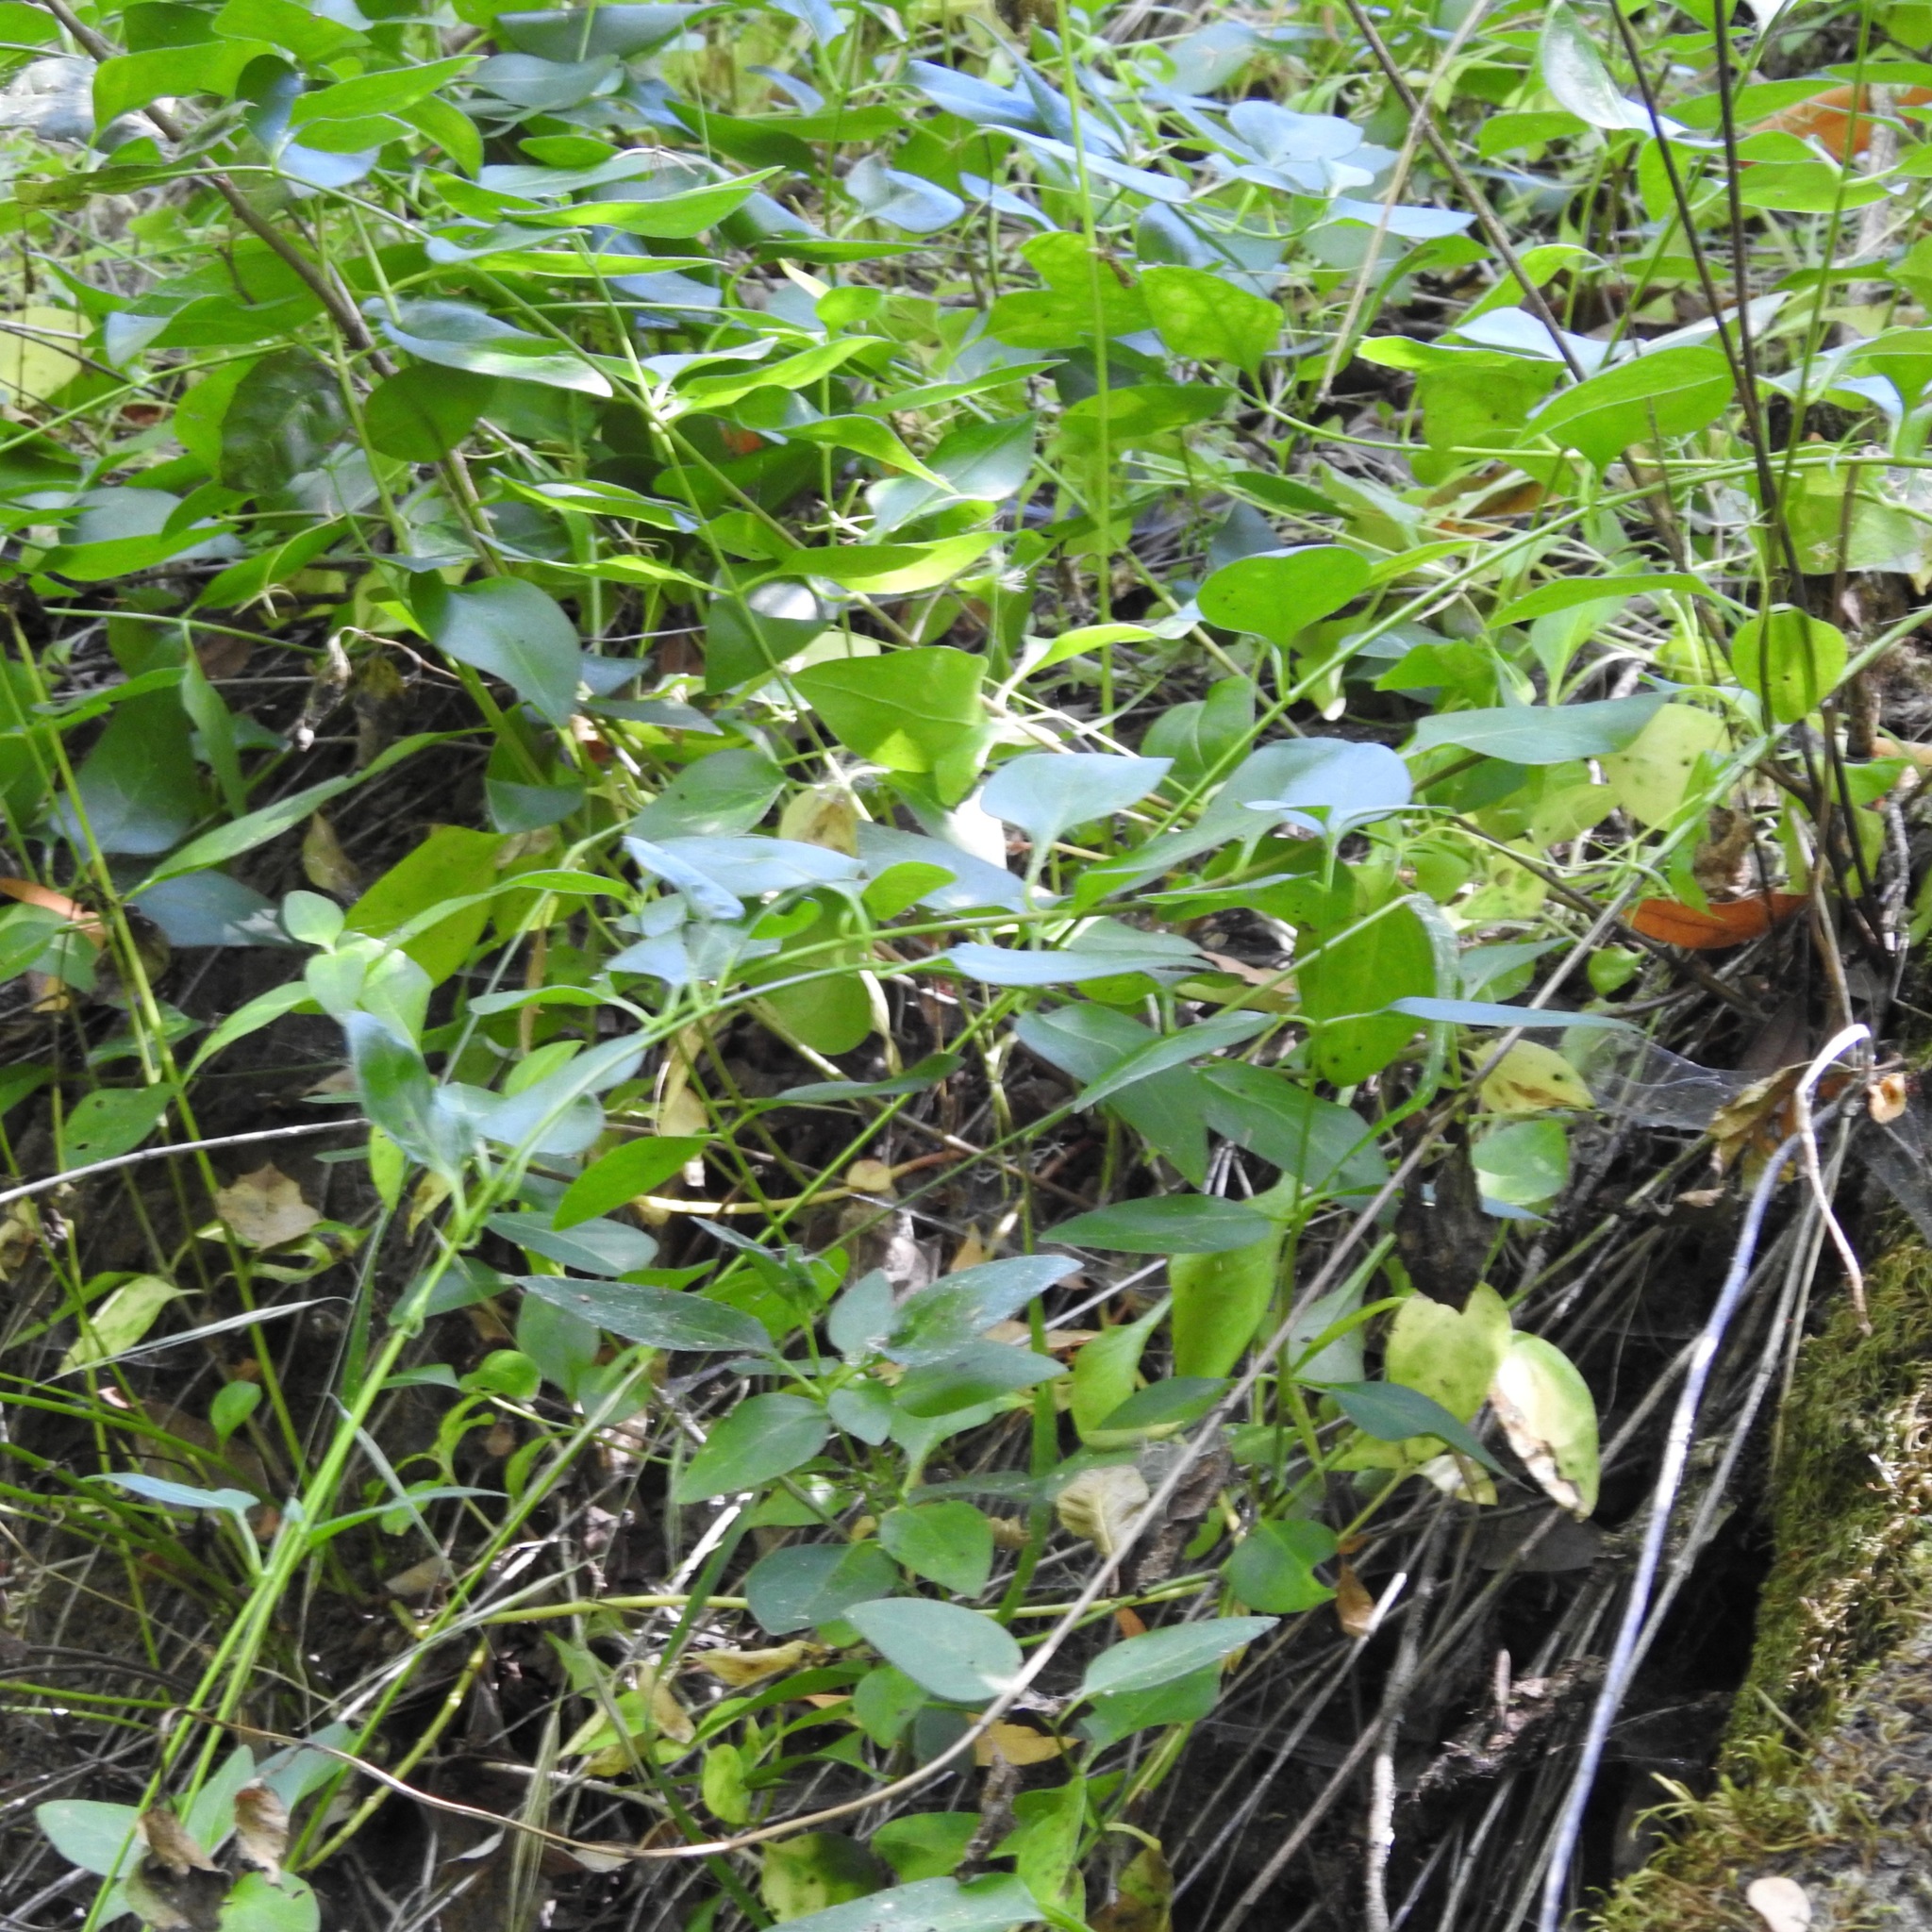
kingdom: Plantae
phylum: Tracheophyta
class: Magnoliopsida
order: Gentianales
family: Apocynaceae
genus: Vinca
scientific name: Vinca major
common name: Greater periwinkle
